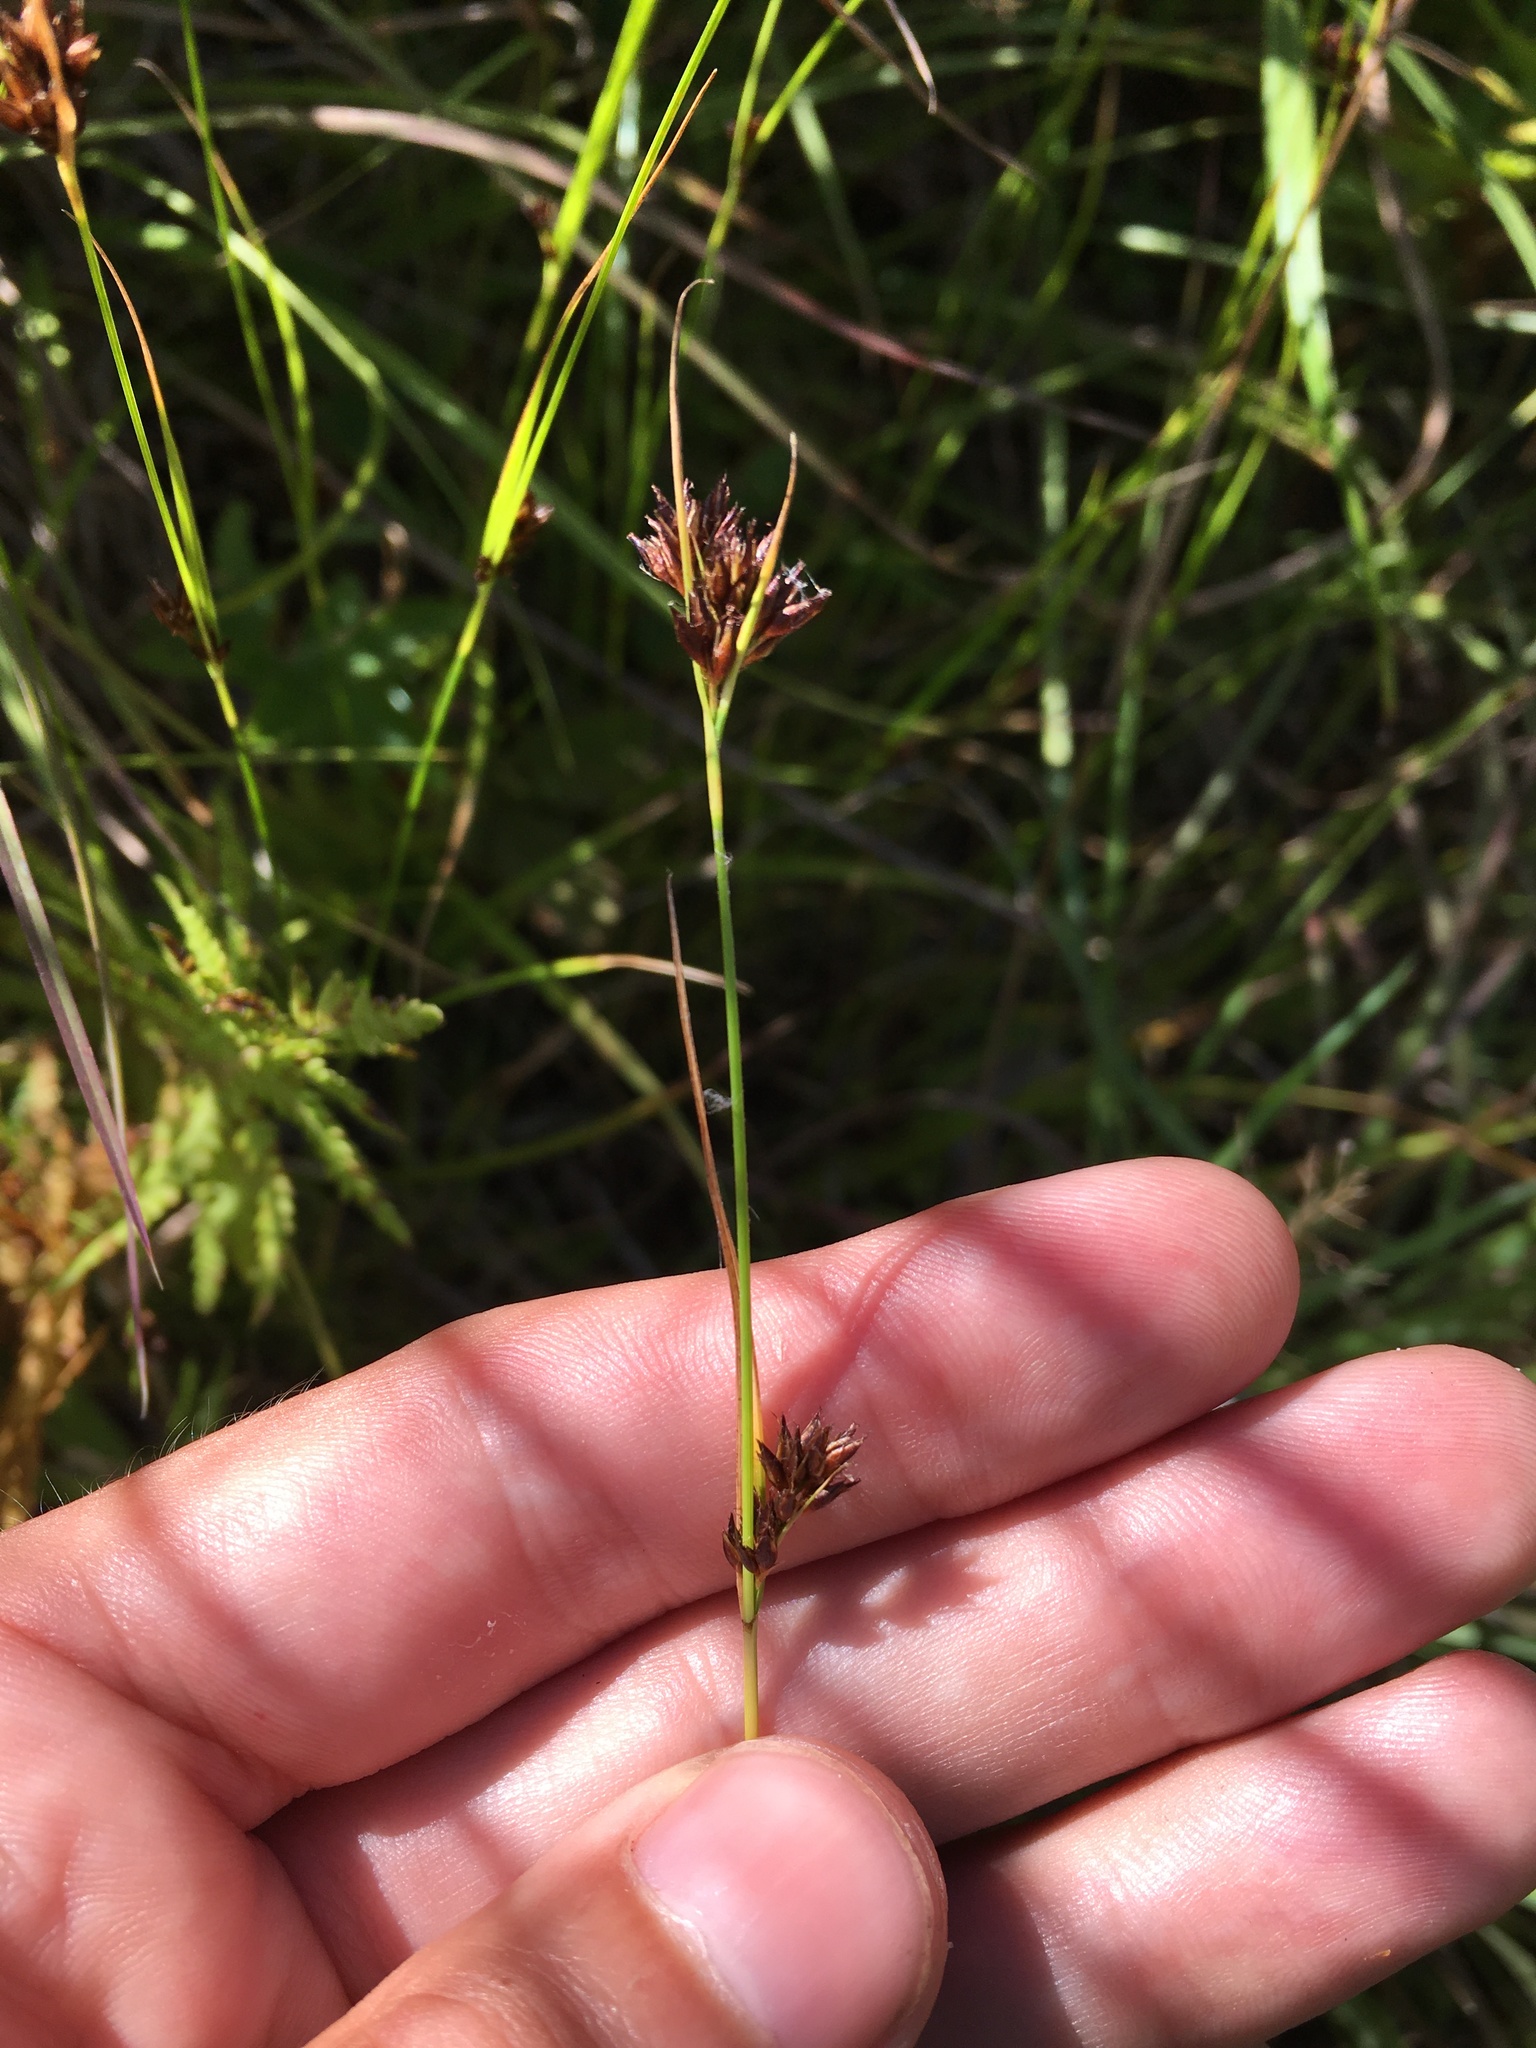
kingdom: Plantae
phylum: Tracheophyta
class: Liliopsida
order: Poales
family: Cyperaceae
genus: Rhynchospora
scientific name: Rhynchospora capitellata
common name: Brownish beaksedge
